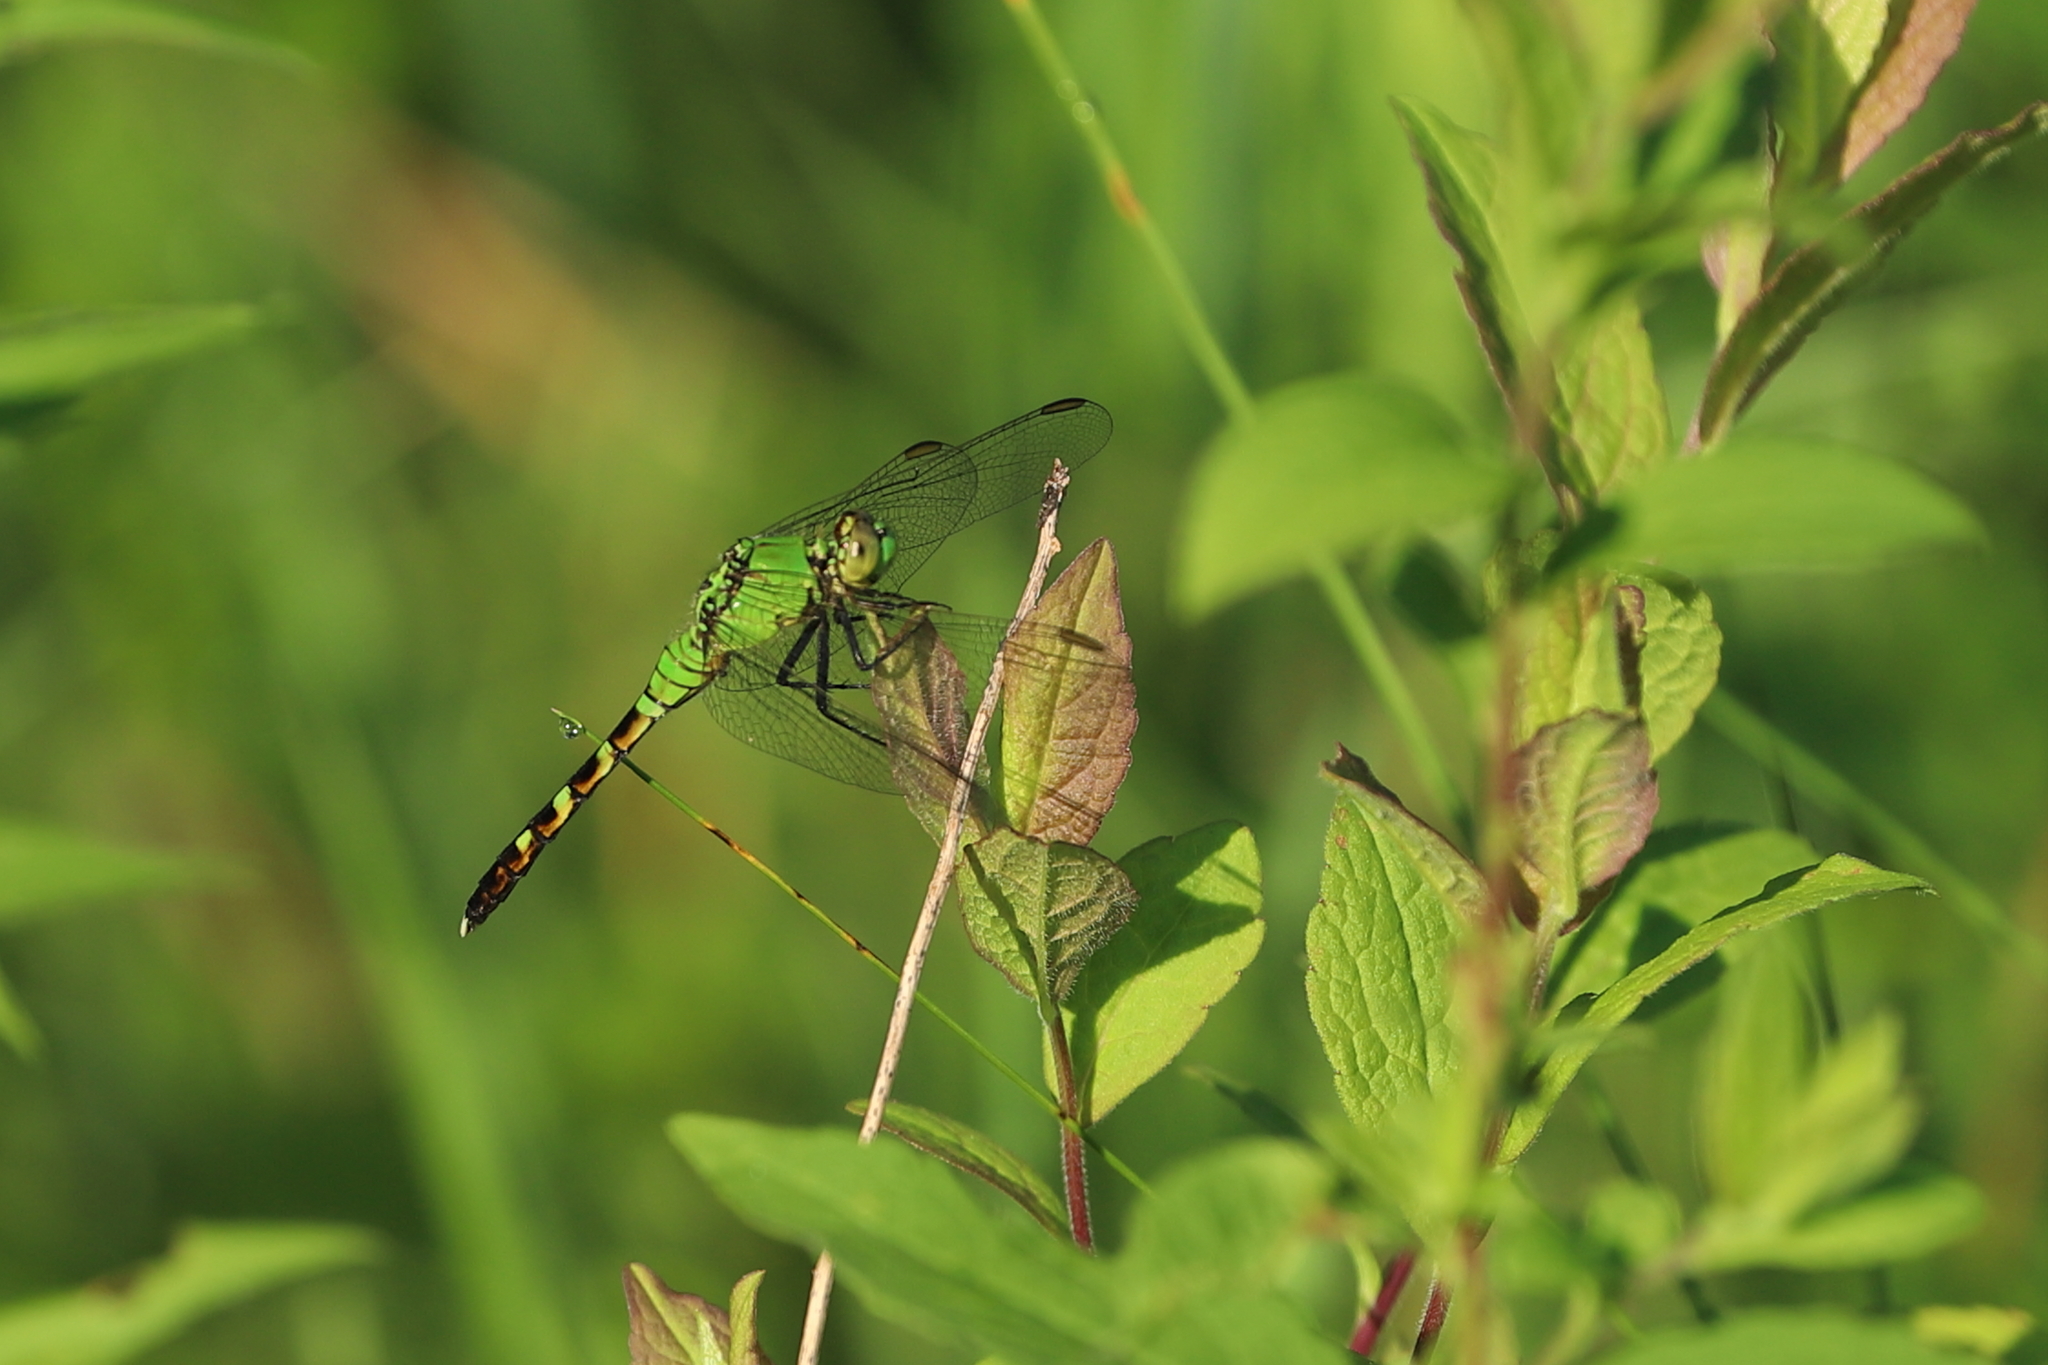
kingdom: Animalia
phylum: Arthropoda
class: Insecta
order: Odonata
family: Libellulidae
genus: Erythemis
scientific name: Erythemis simplicicollis
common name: Eastern pondhawk
